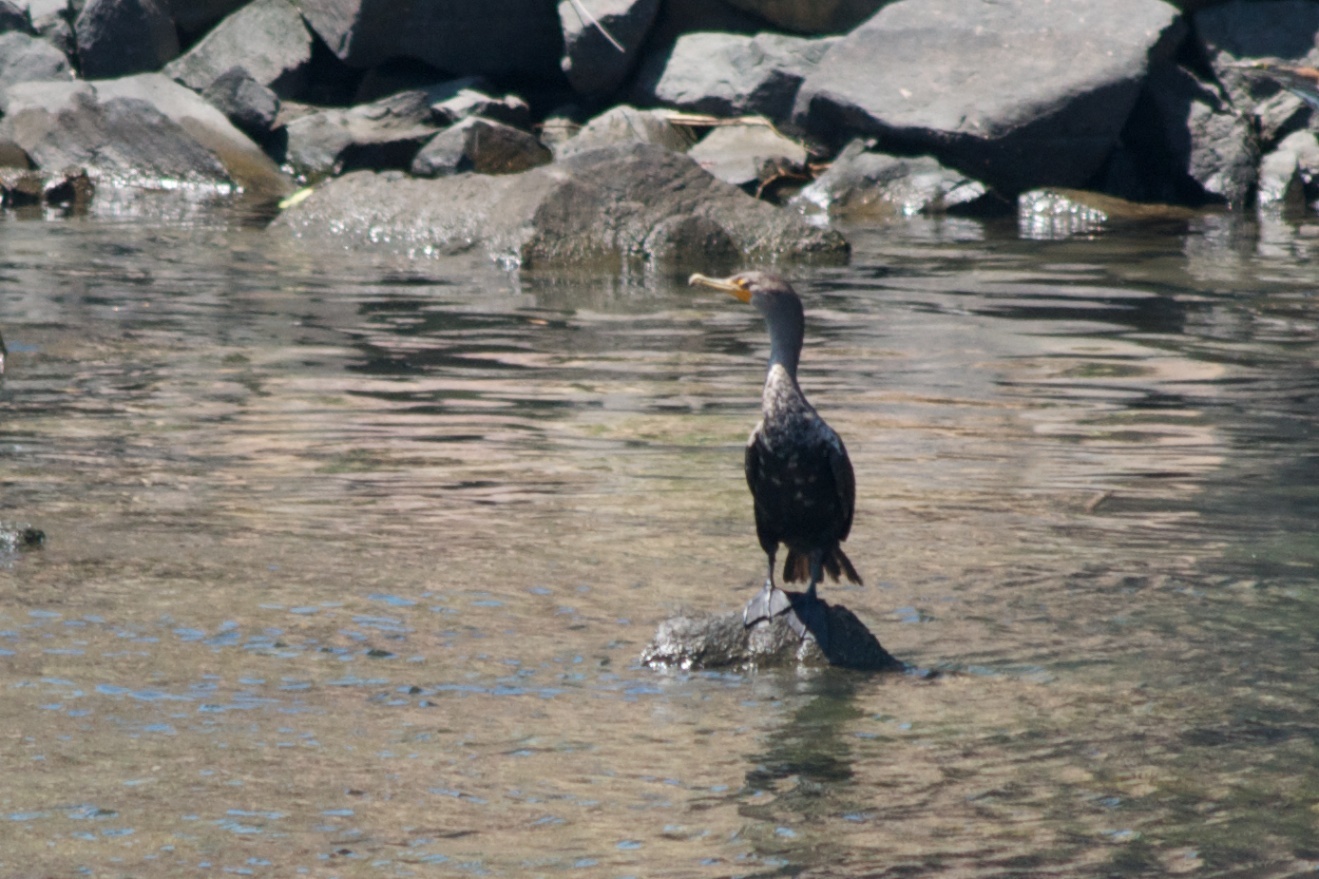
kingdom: Animalia
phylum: Chordata
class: Aves
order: Suliformes
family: Phalacrocoracidae
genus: Phalacrocorax
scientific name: Phalacrocorax auritus
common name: Double-crested cormorant
